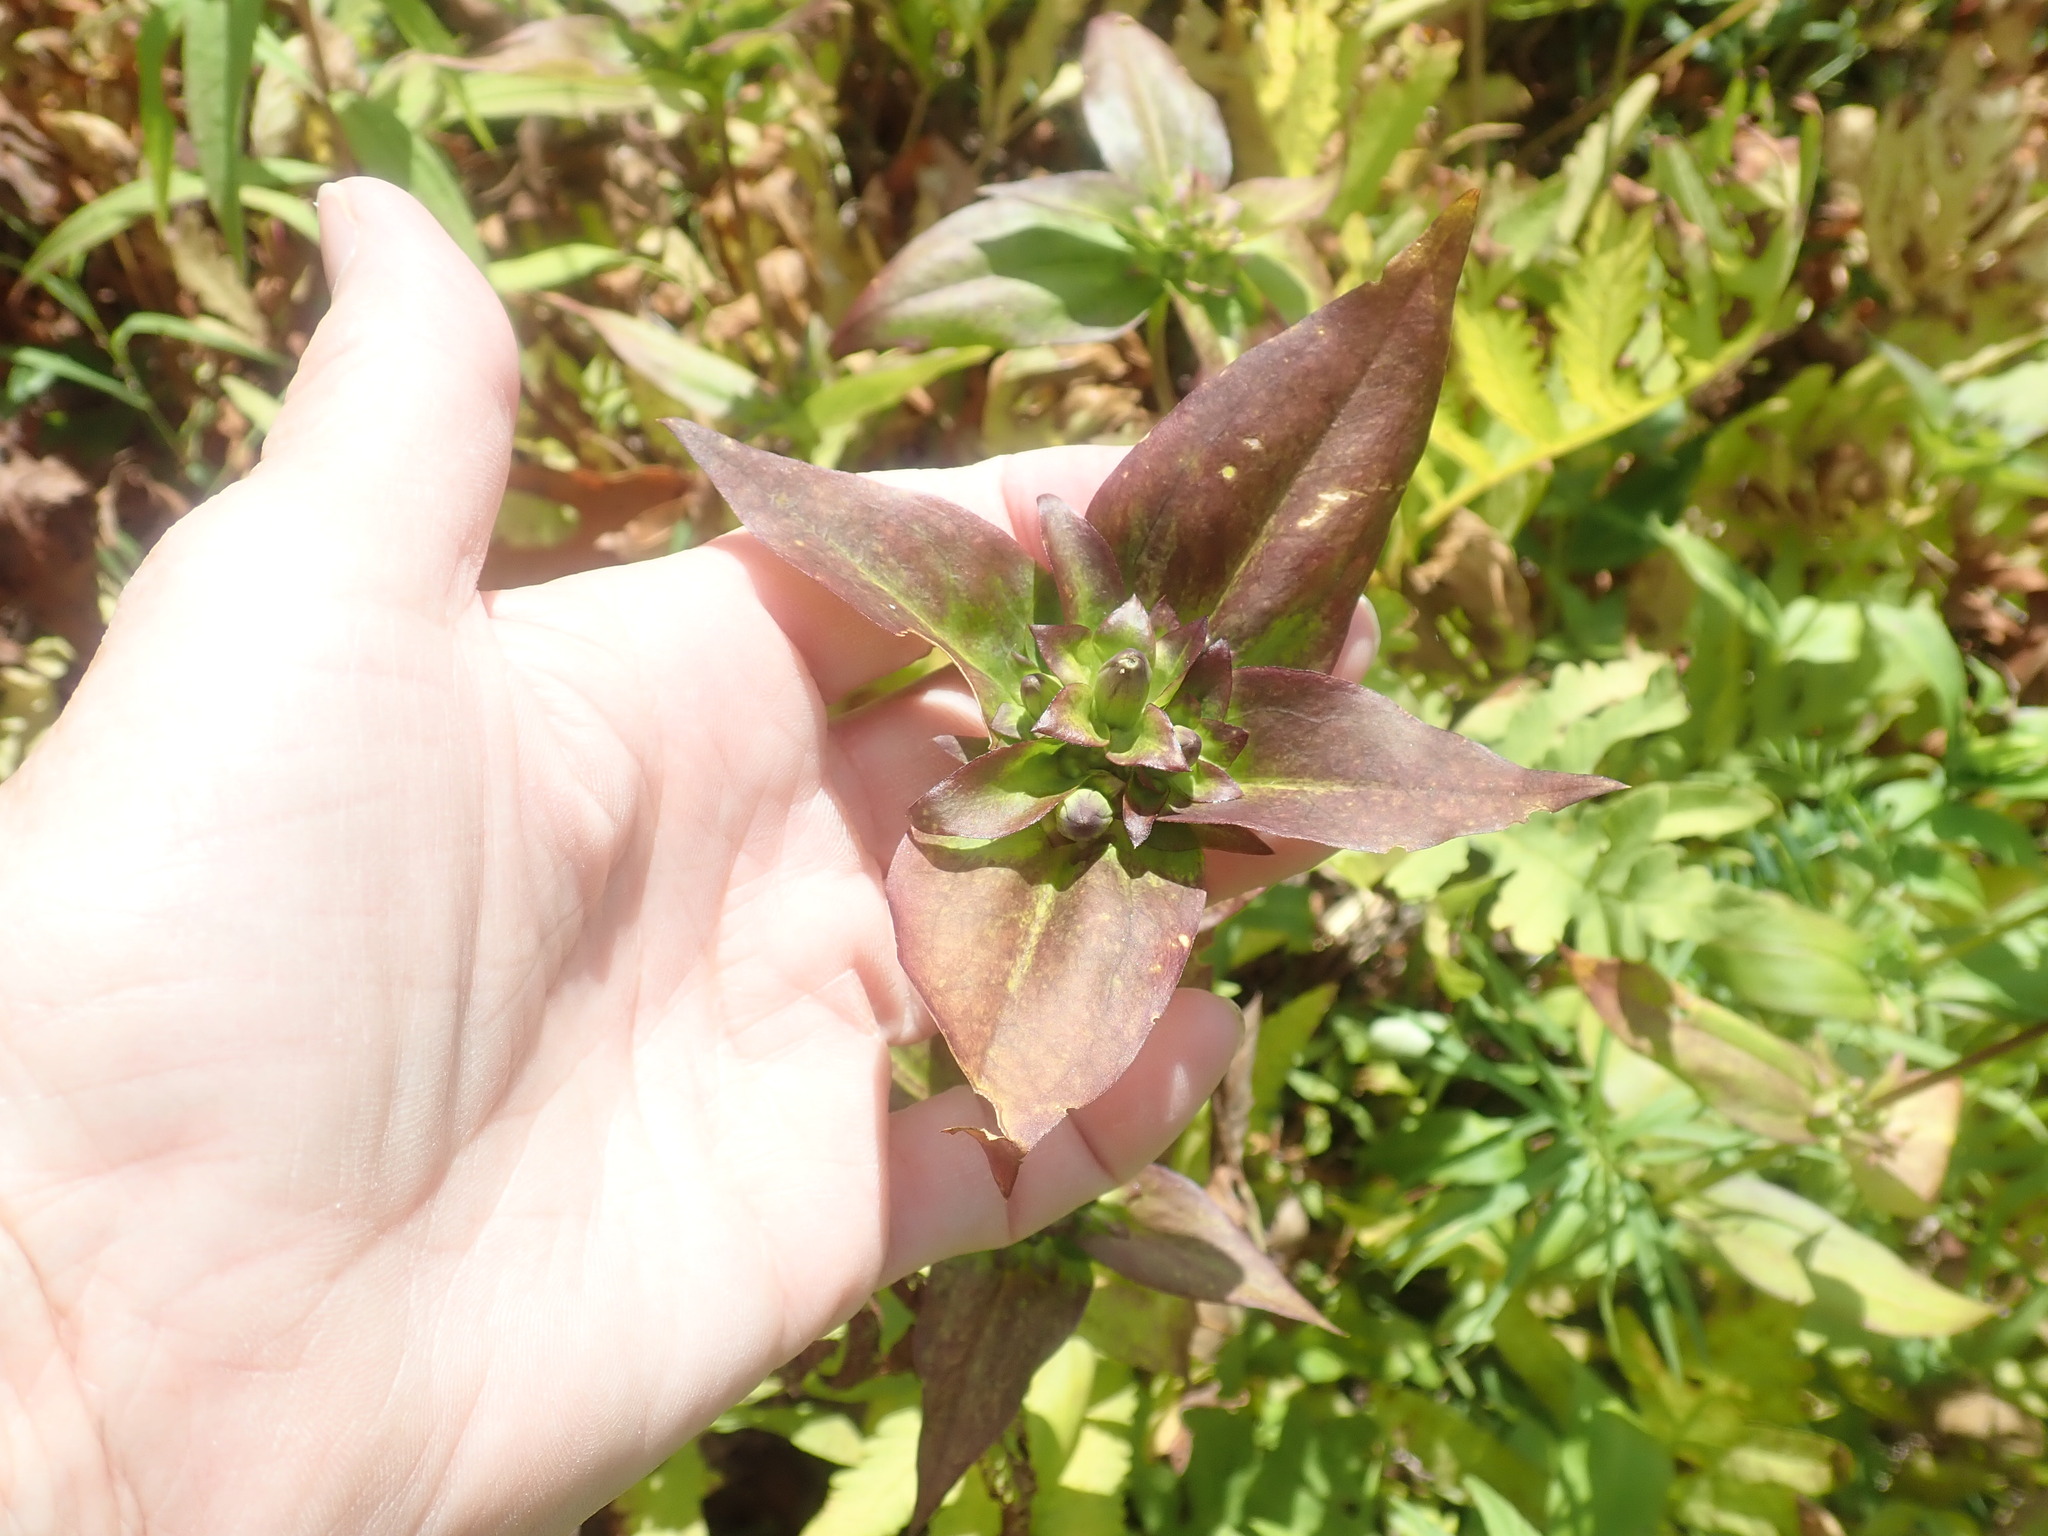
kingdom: Plantae
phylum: Tracheophyta
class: Magnoliopsida
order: Gentianales
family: Gentianaceae
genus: Gentiana
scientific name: Gentiana clausa
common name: Blind gentian
